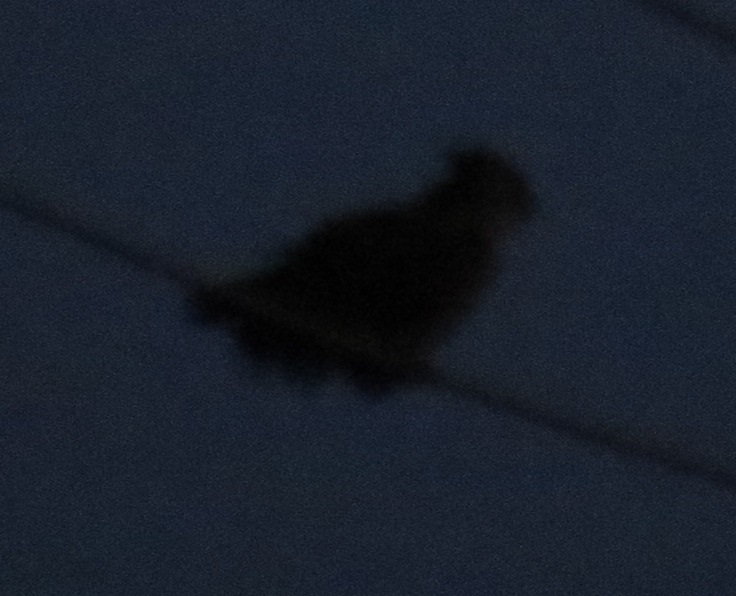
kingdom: Animalia
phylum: Chordata
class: Aves
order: Strigiformes
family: Strigidae
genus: Bubo
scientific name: Bubo virginianus
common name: Great horned owl
